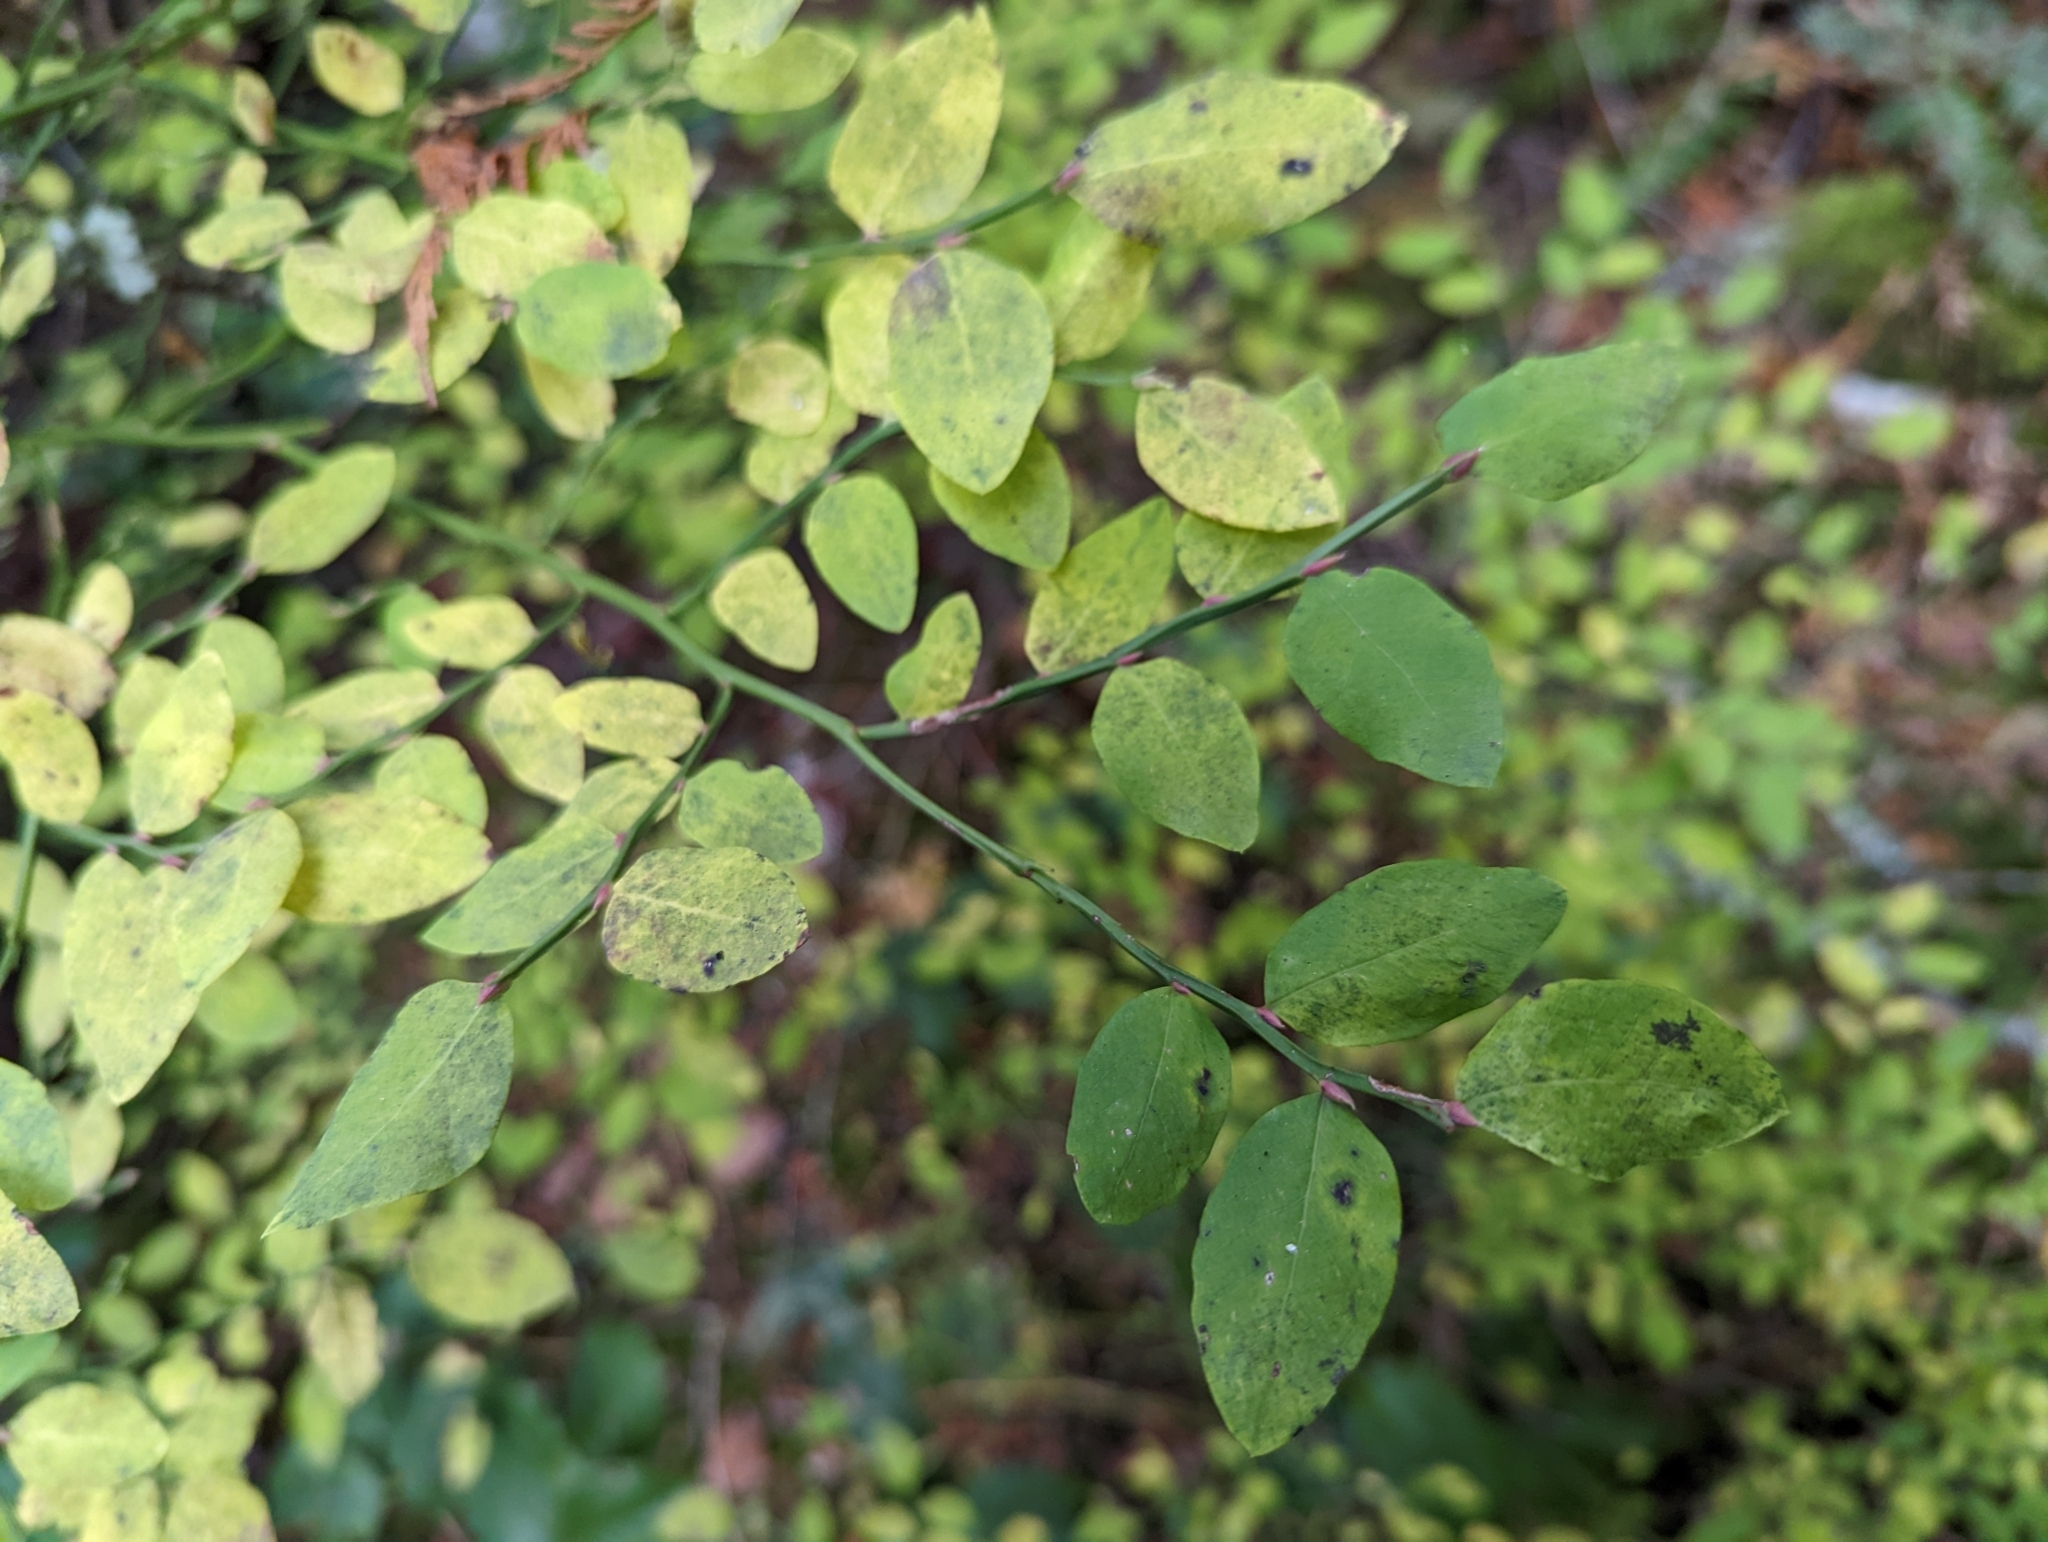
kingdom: Plantae
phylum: Tracheophyta
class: Magnoliopsida
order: Ericales
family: Ericaceae
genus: Vaccinium
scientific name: Vaccinium parvifolium
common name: Red-huckleberry
